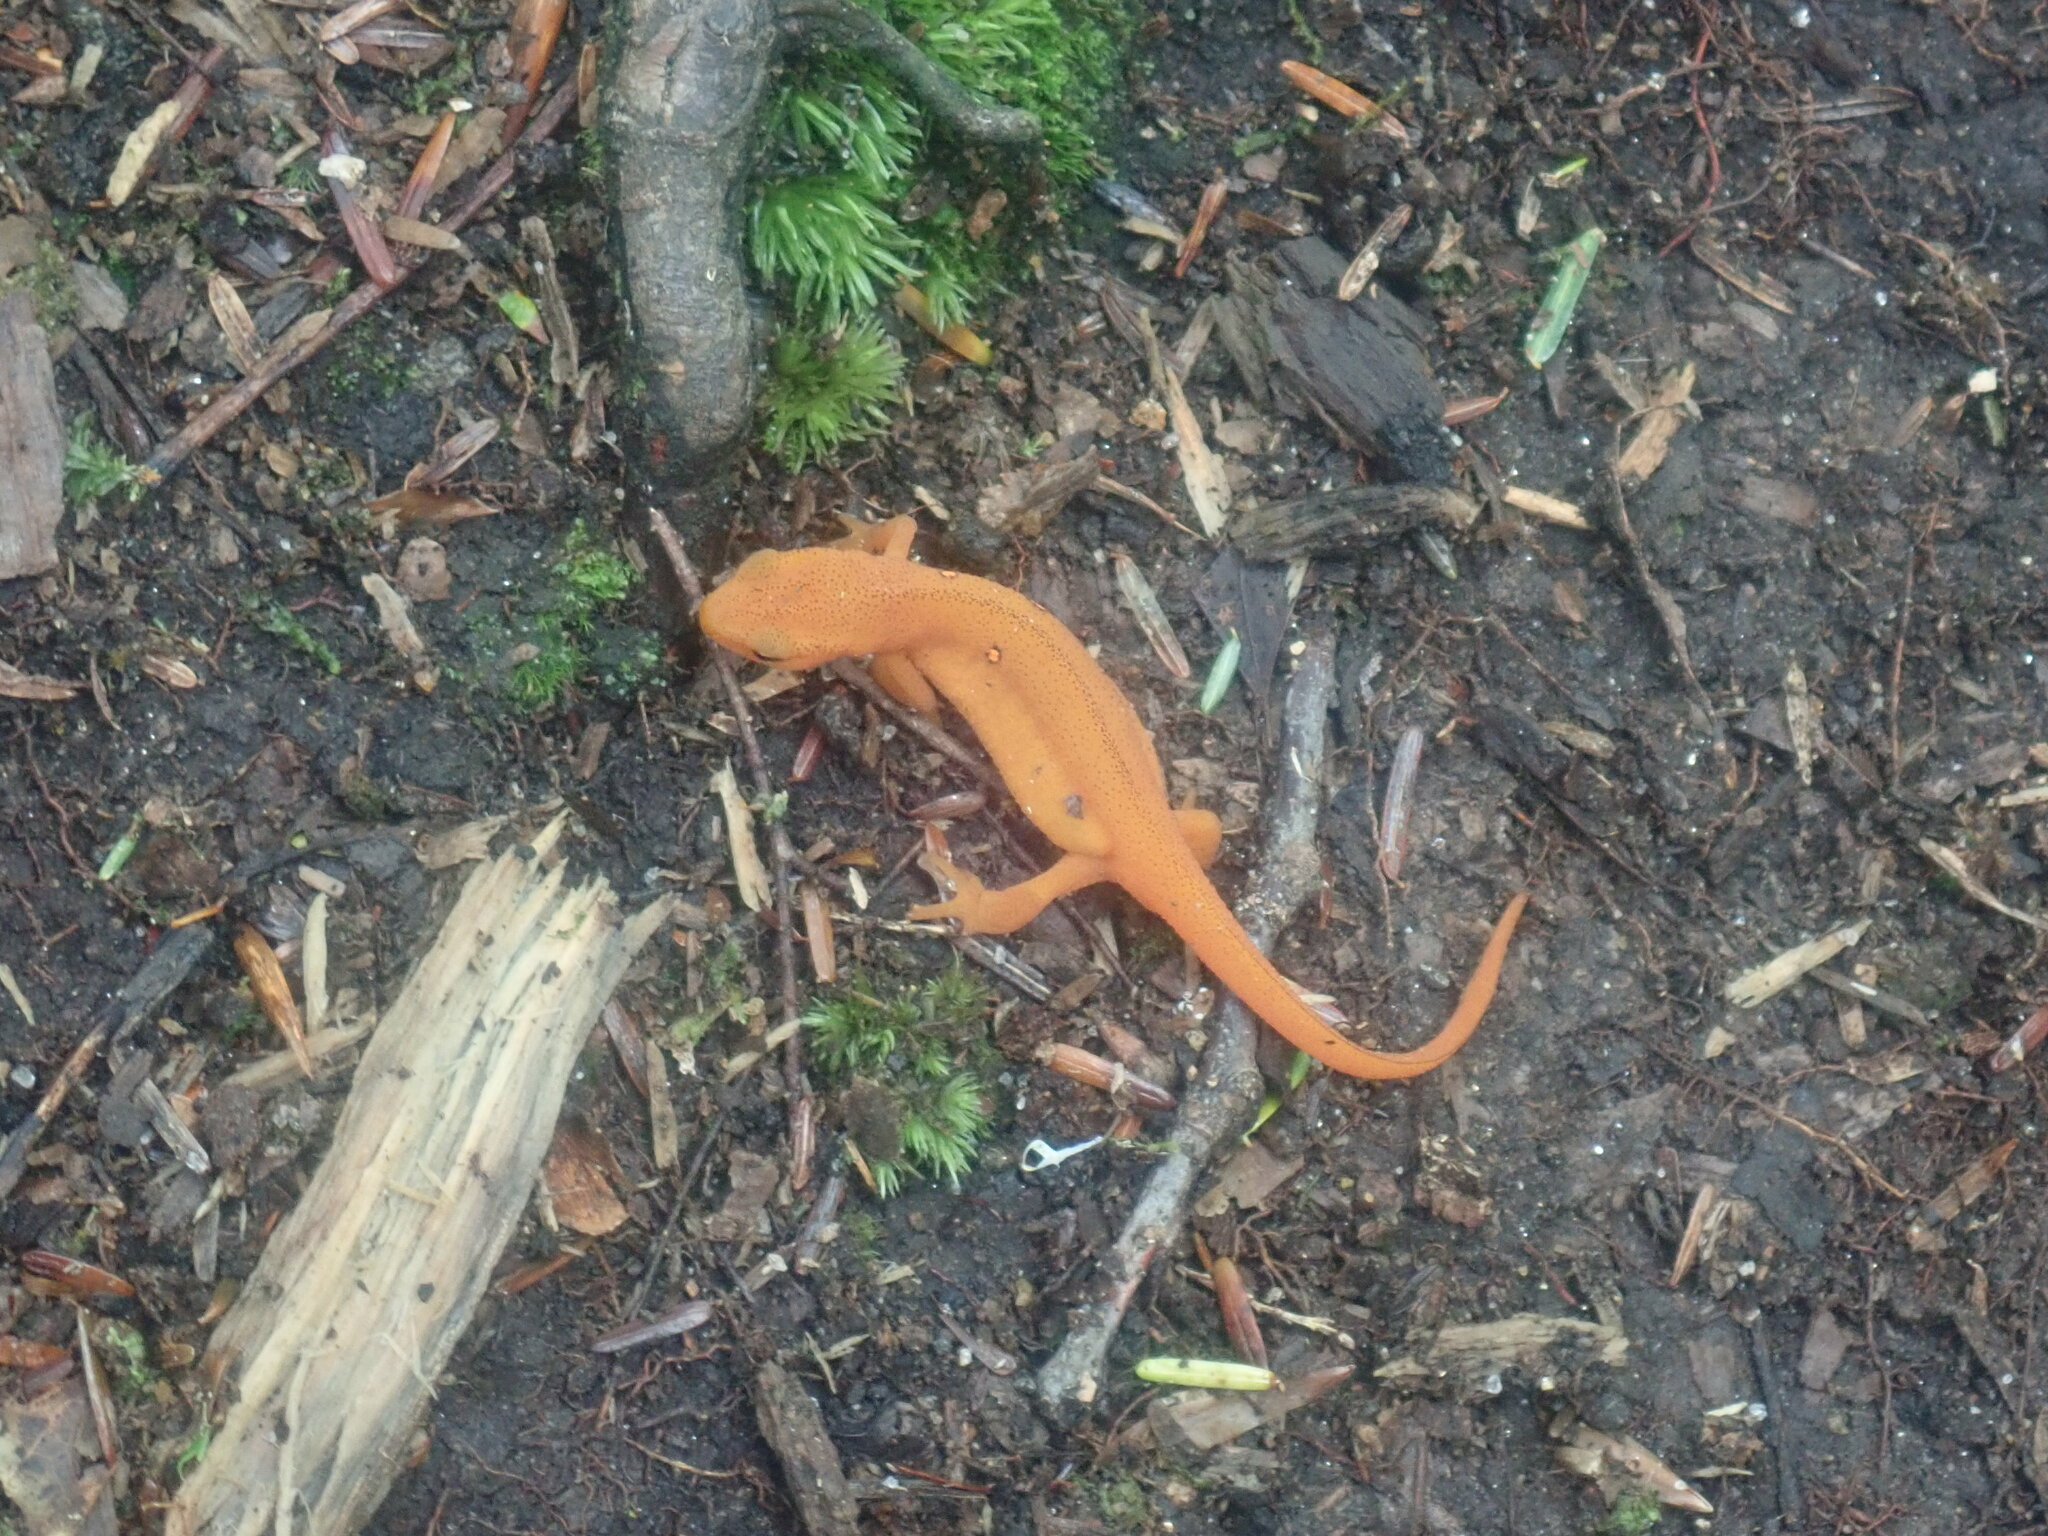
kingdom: Animalia
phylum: Chordata
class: Amphibia
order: Caudata
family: Salamandridae
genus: Notophthalmus
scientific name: Notophthalmus viridescens
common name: Eastern newt
